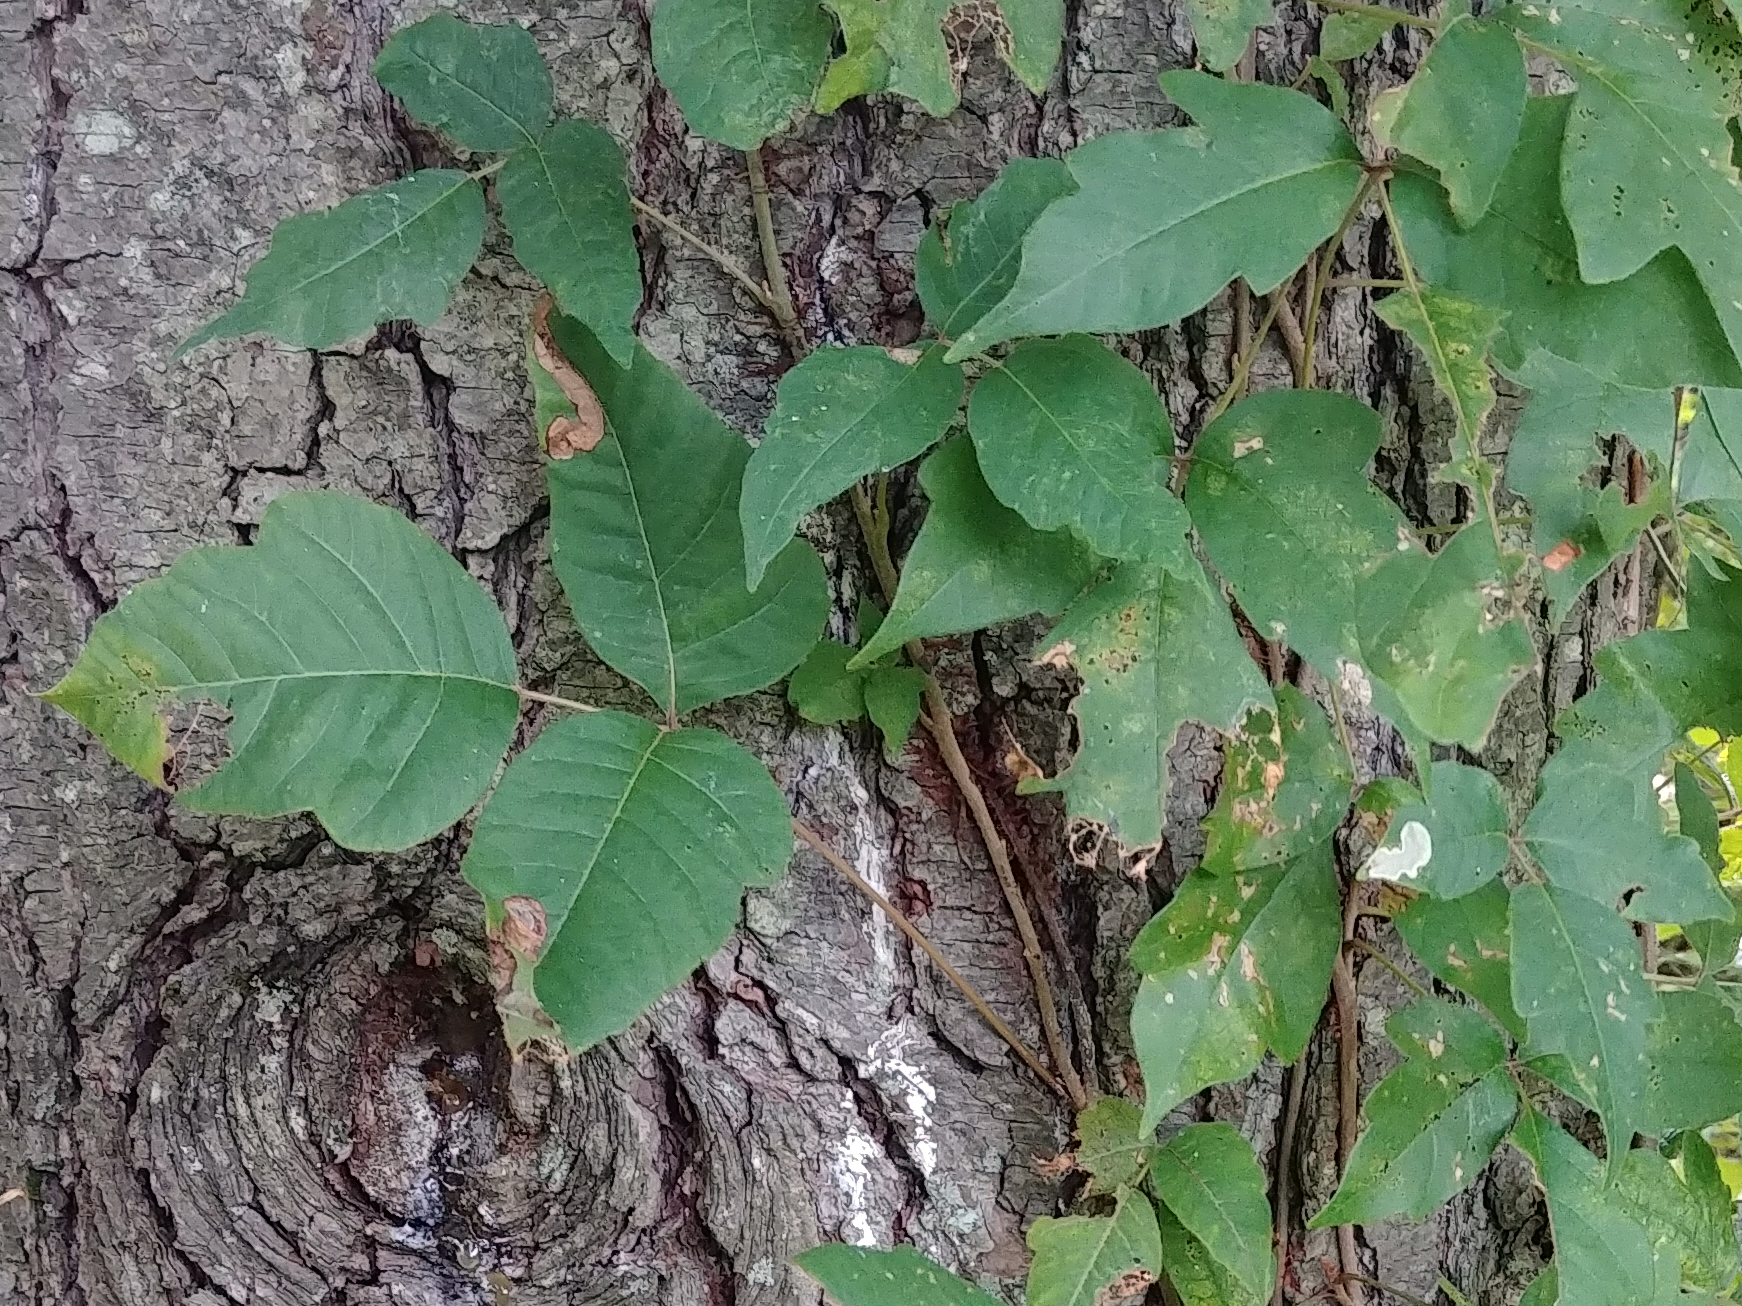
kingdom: Plantae
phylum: Tracheophyta
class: Magnoliopsida
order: Sapindales
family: Anacardiaceae
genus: Toxicodendron
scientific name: Toxicodendron radicans
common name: Poison ivy
